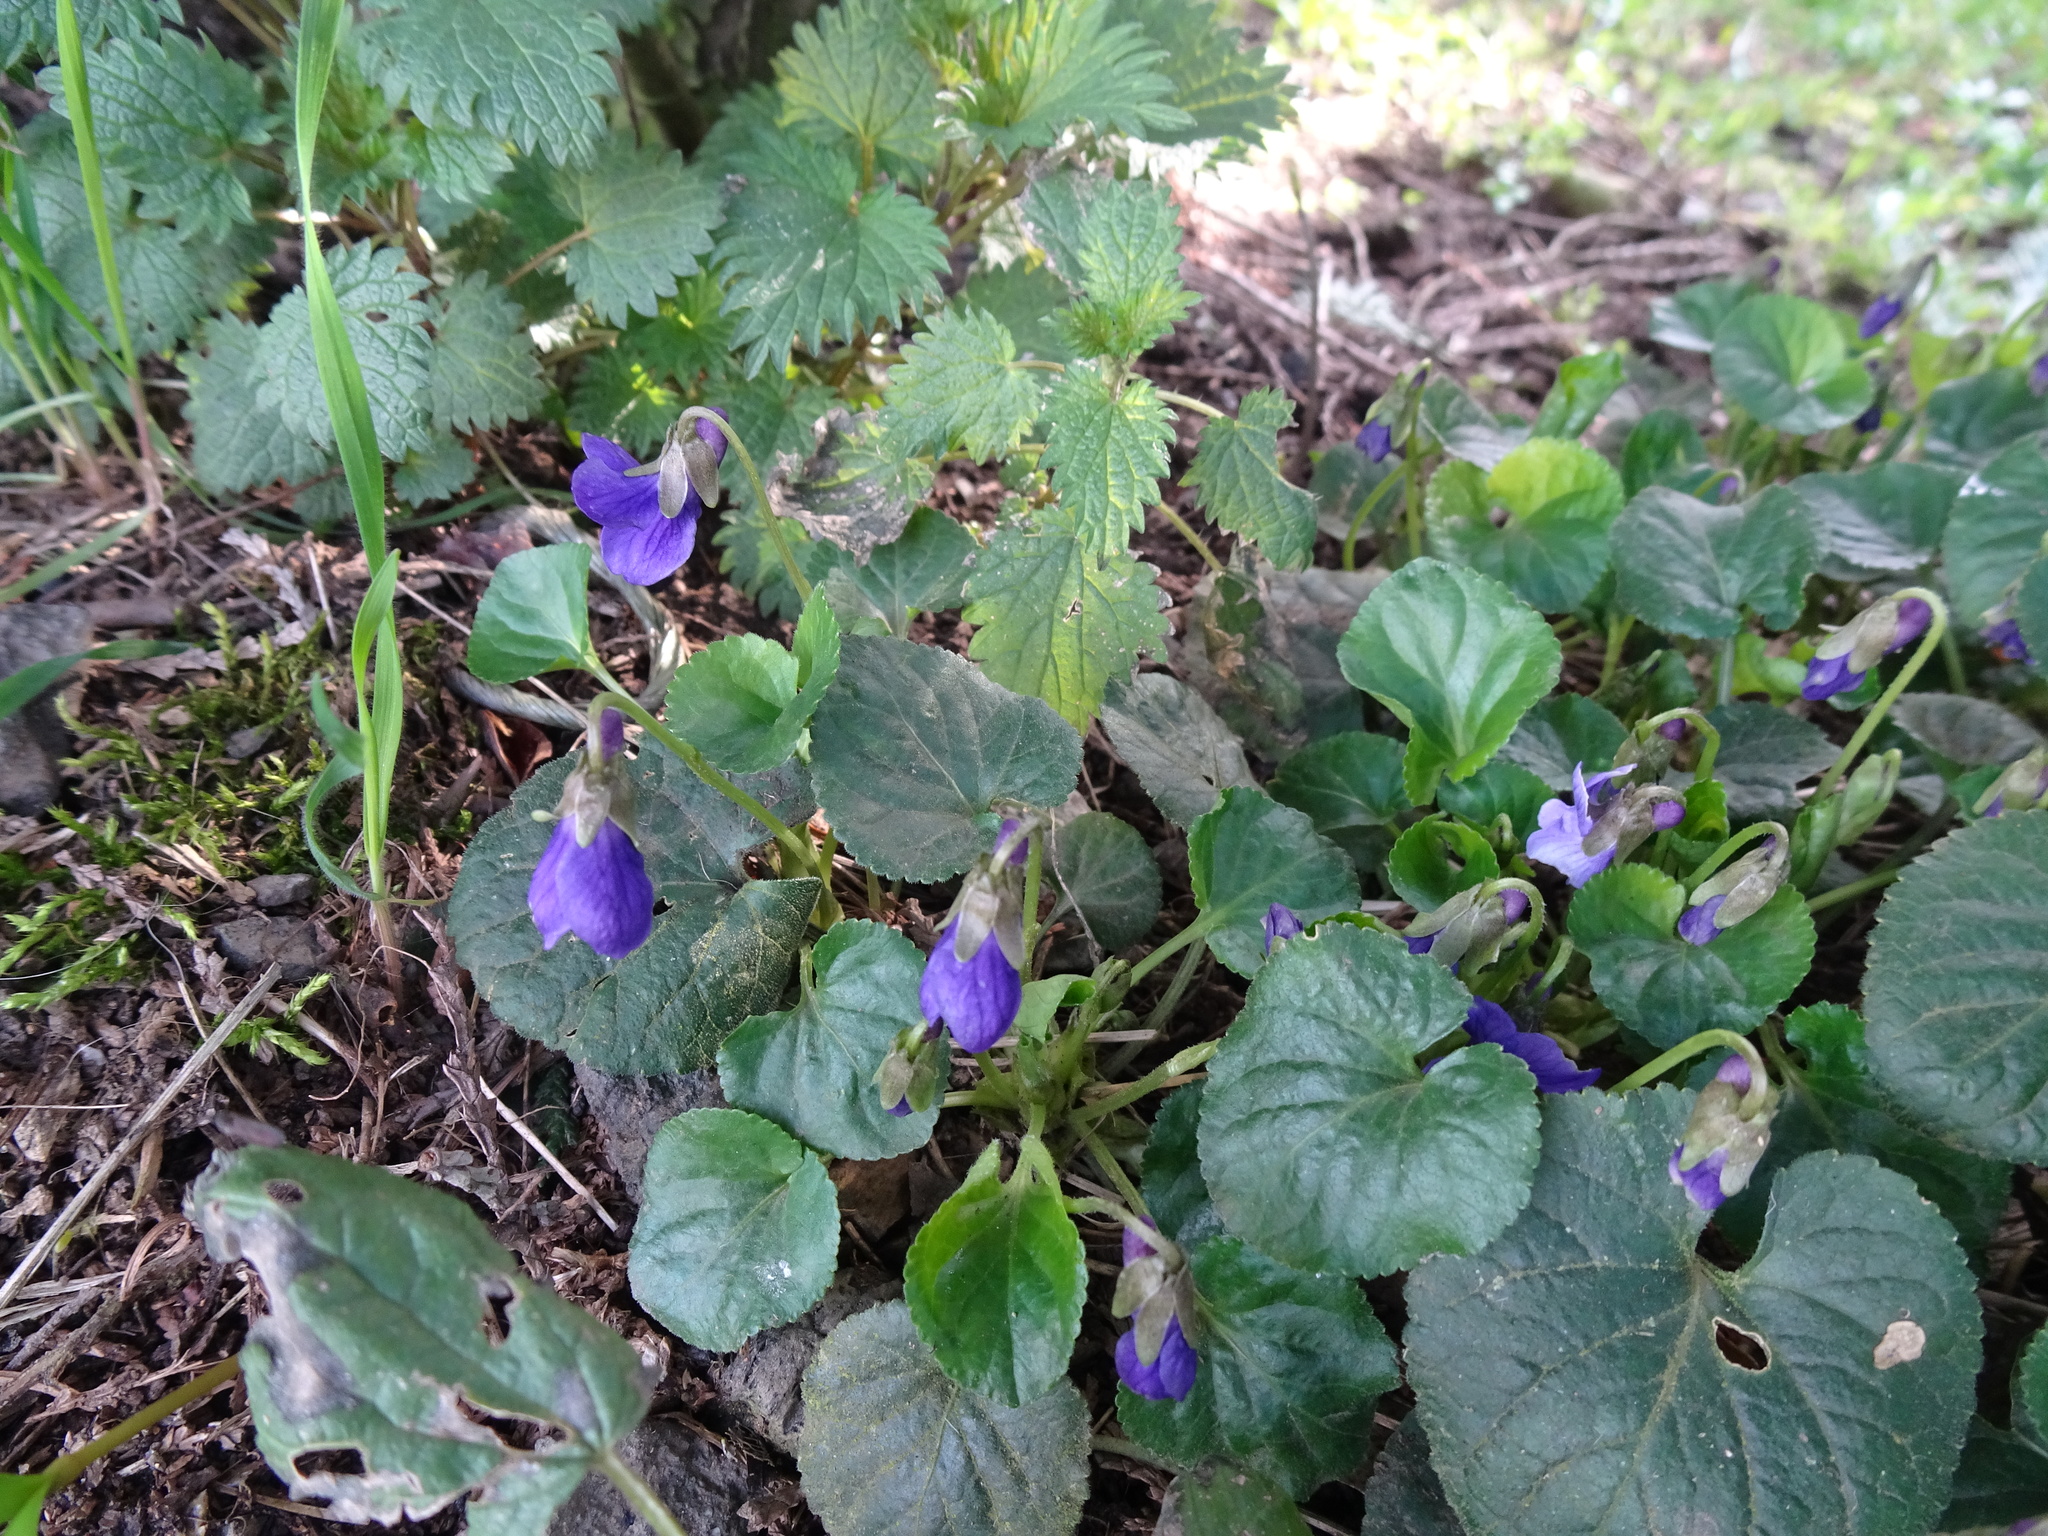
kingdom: Plantae
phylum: Tracheophyta
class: Magnoliopsida
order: Malpighiales
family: Violaceae
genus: Viola
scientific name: Viola odorata
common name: Sweet violet
